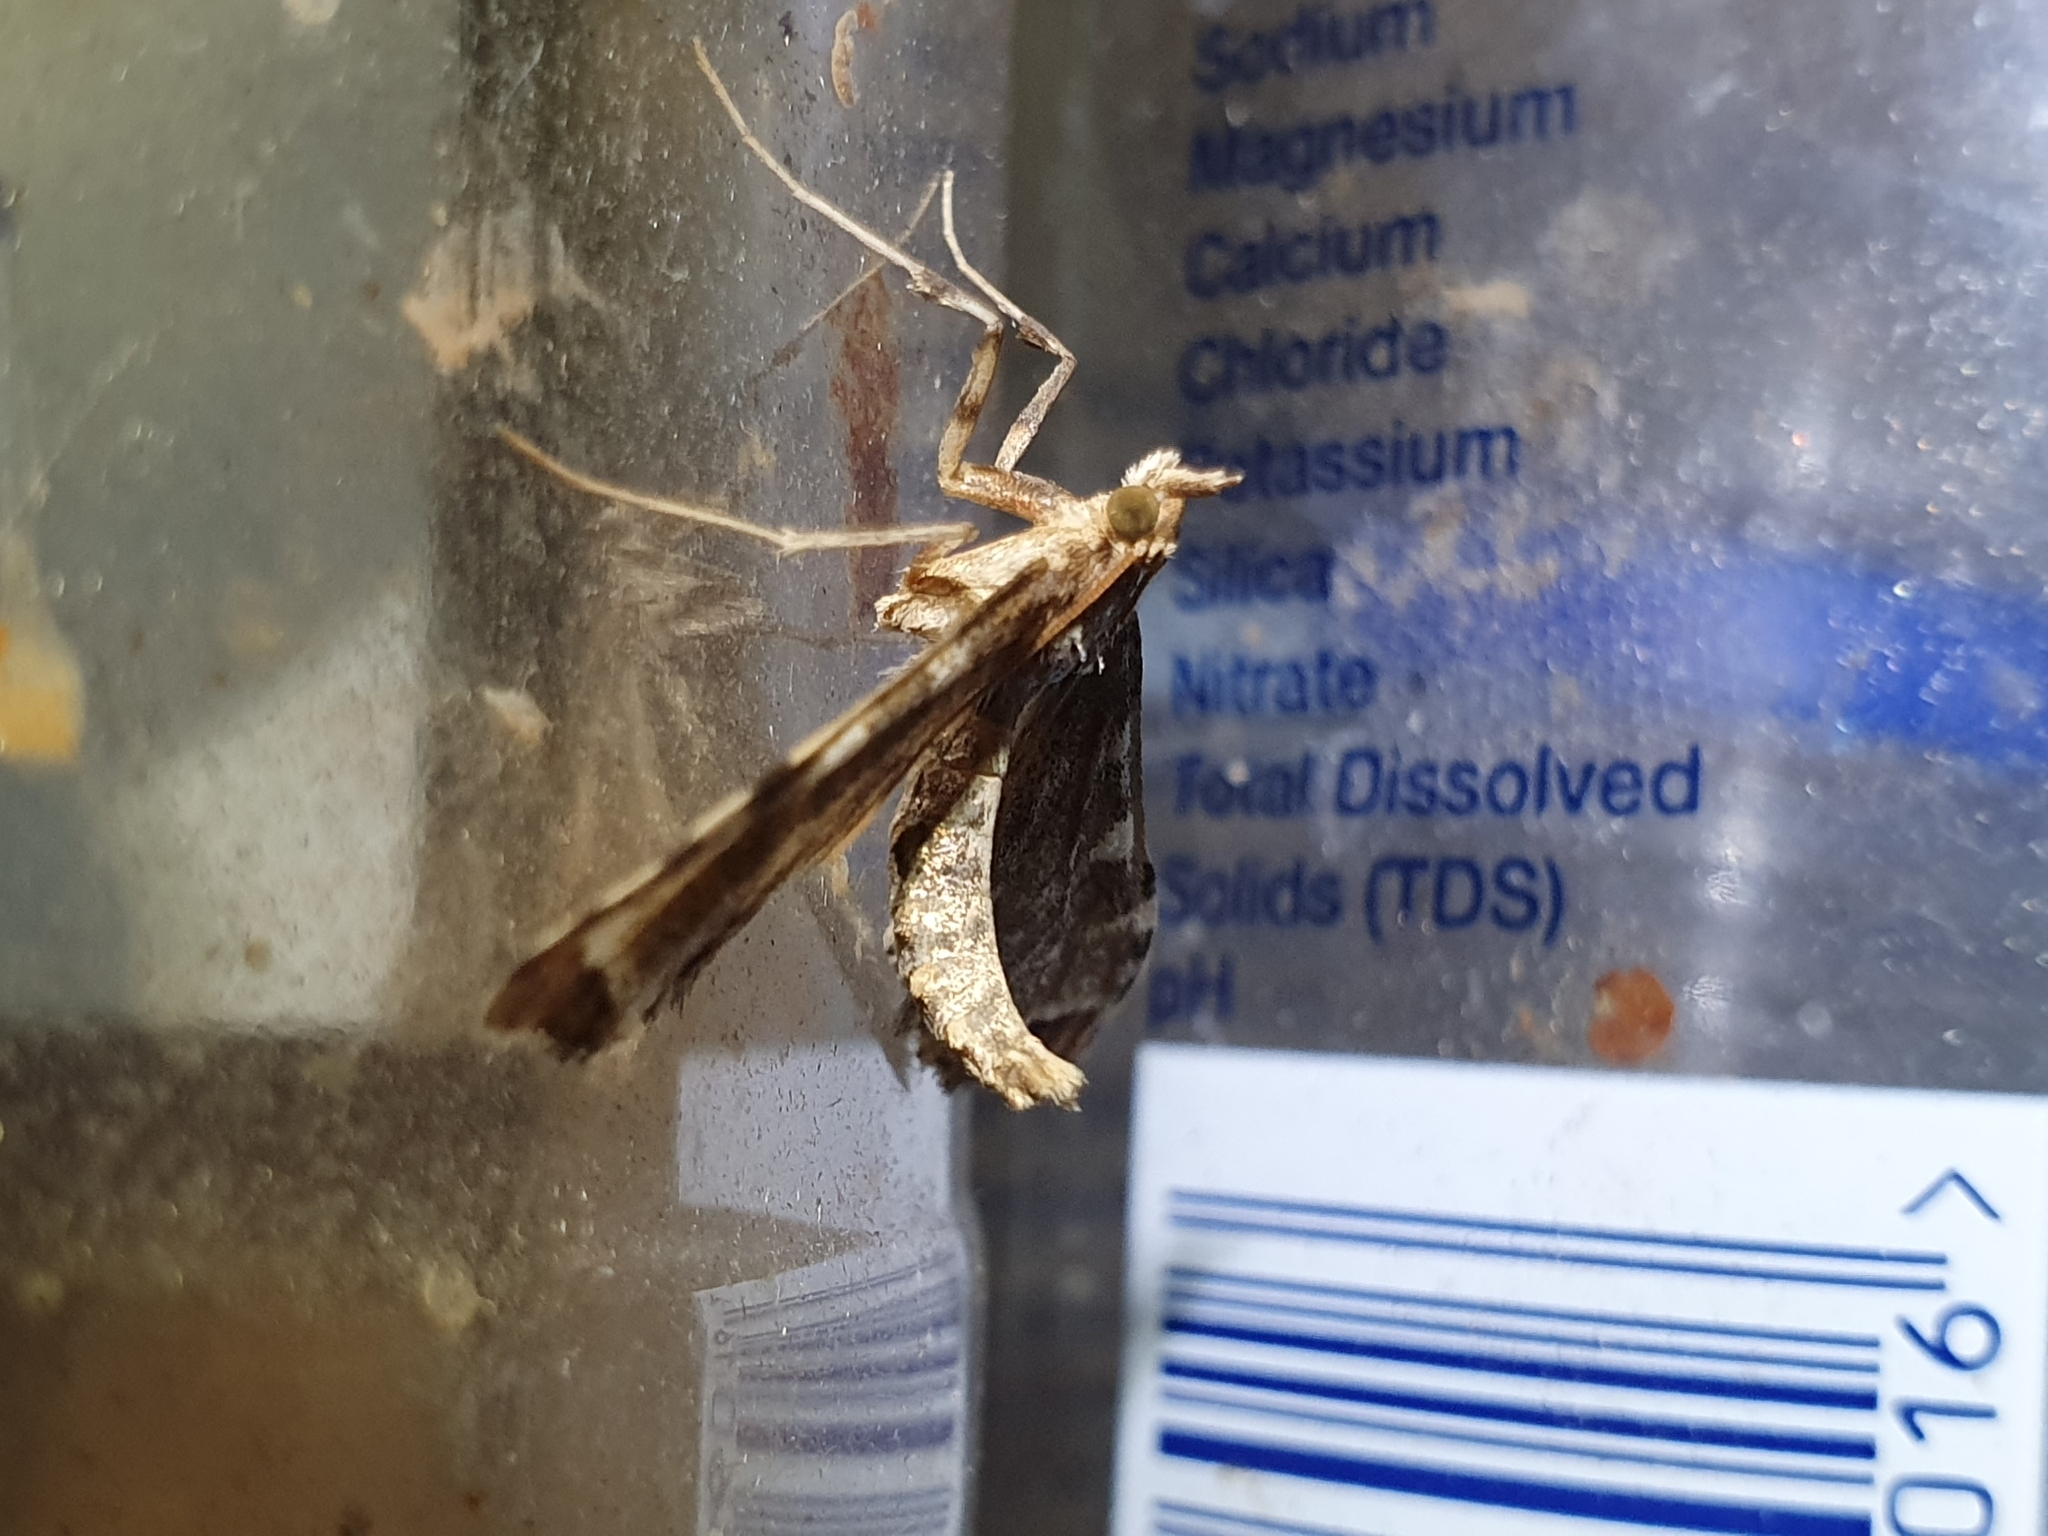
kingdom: Animalia
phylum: Arthropoda
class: Insecta
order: Lepidoptera
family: Crambidae
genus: Sceliodes
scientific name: Sceliodes cordalis
